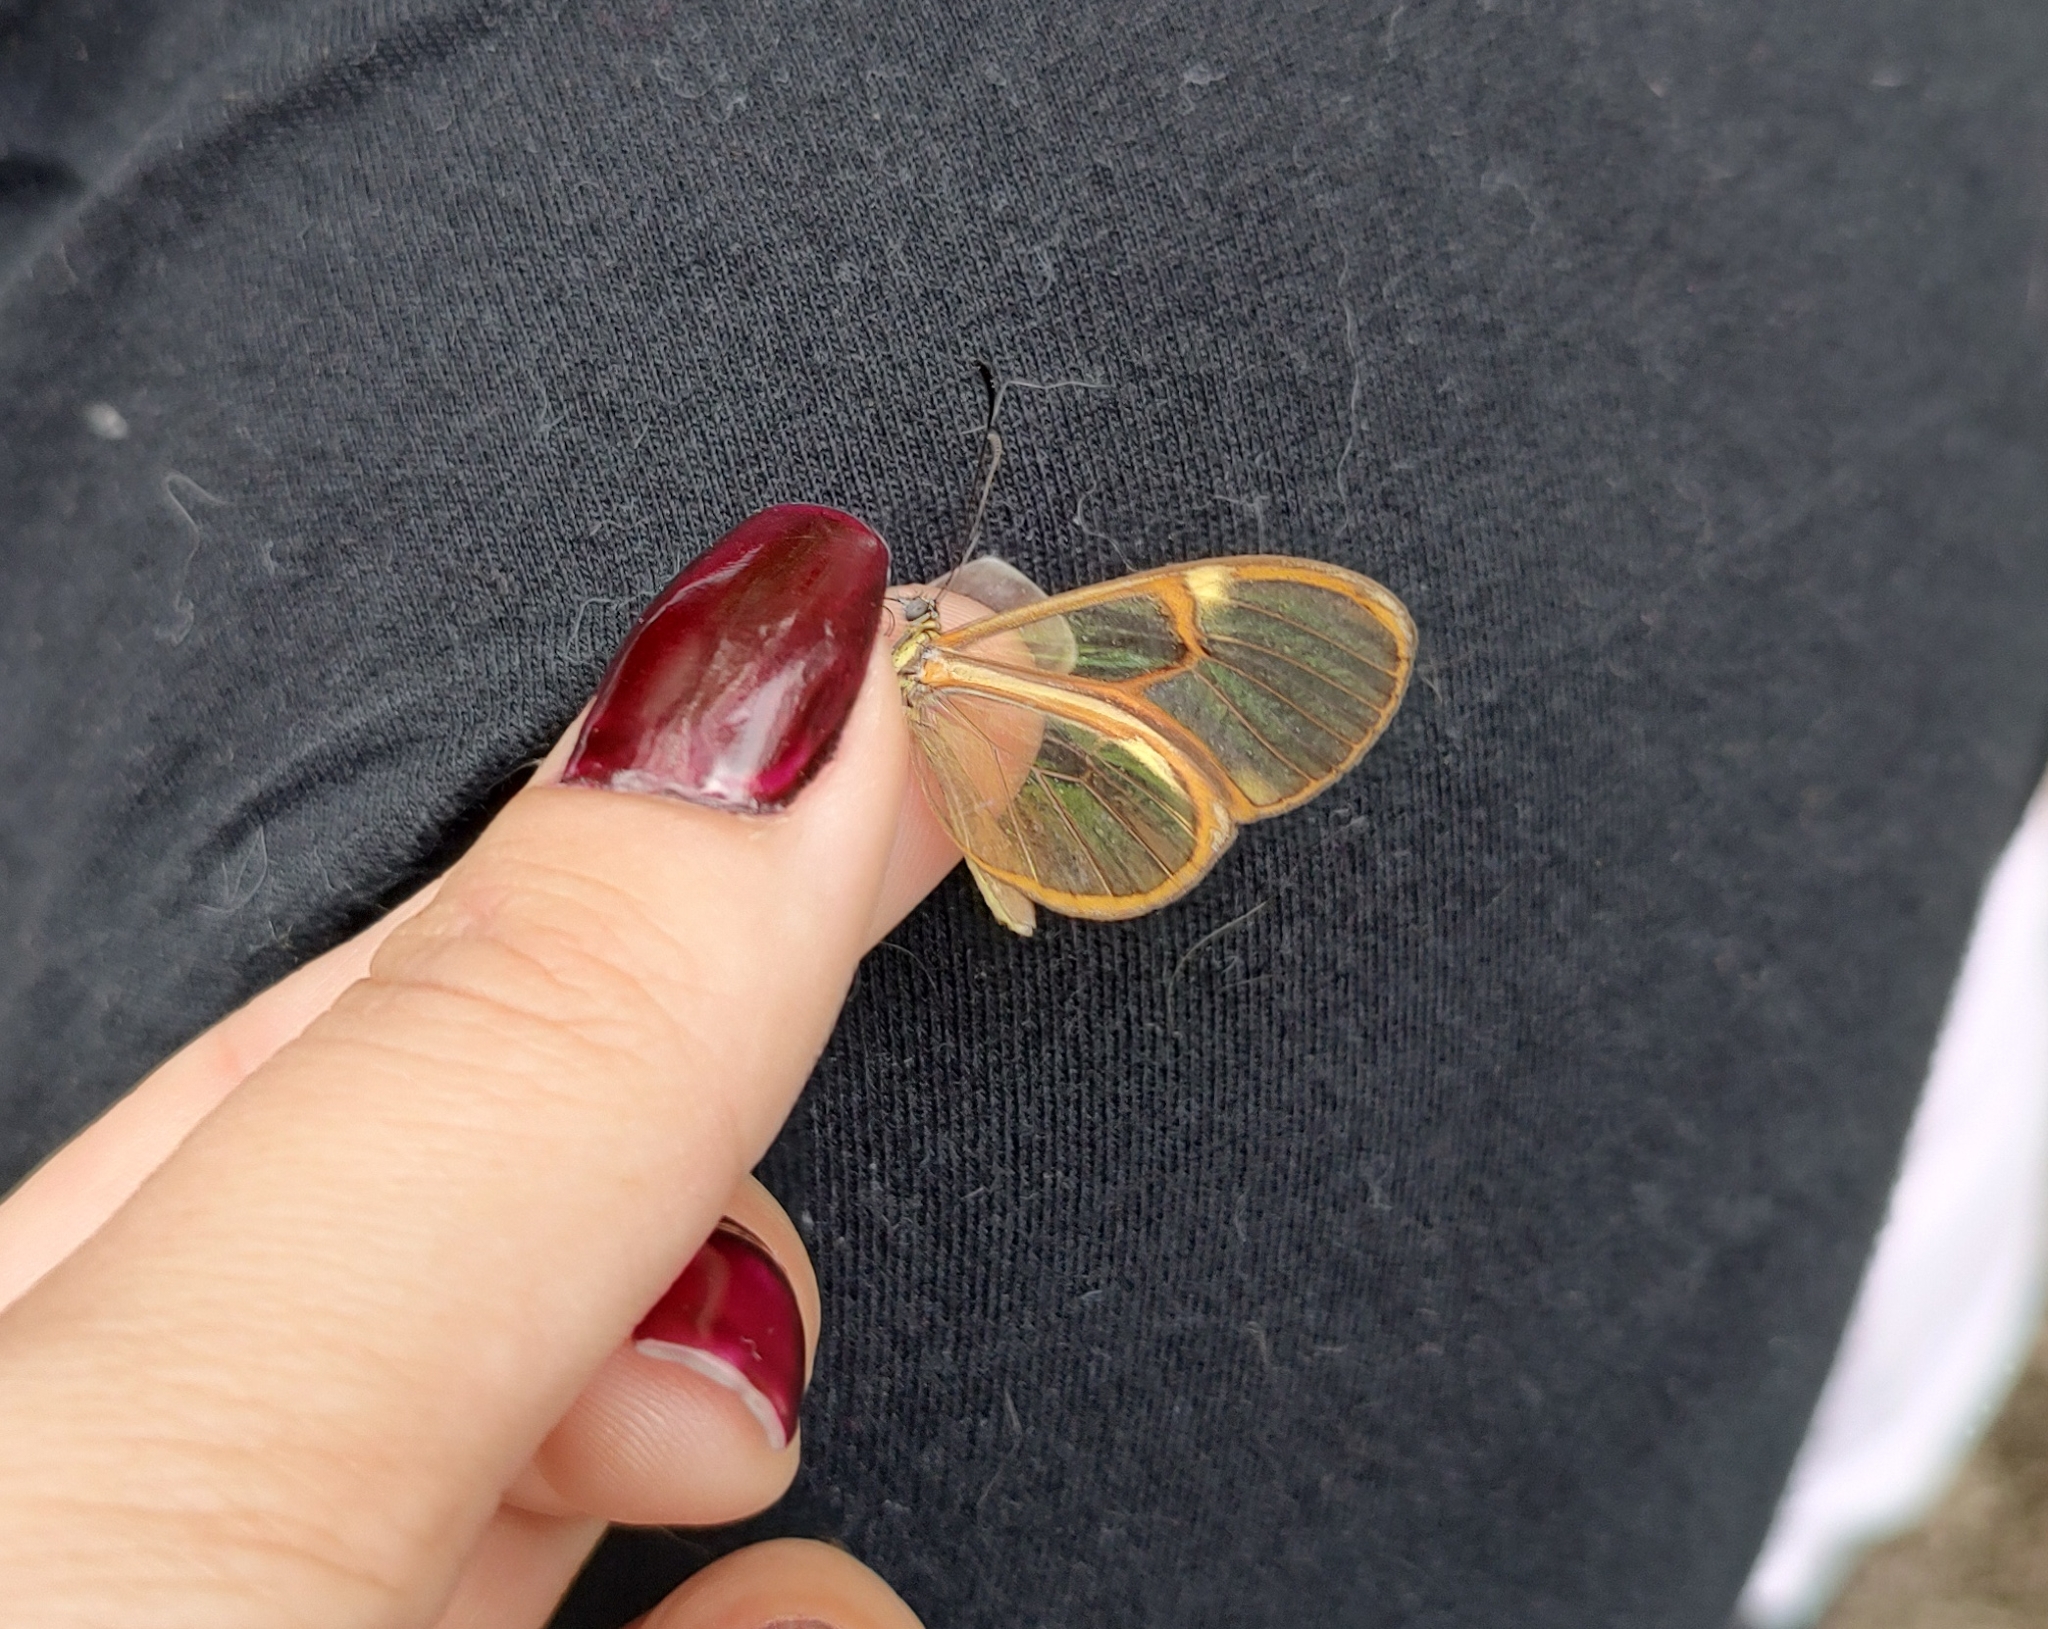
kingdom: Animalia
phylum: Arthropoda
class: Insecta
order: Lepidoptera
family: Nymphalidae
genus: Episcada
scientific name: Episcada hymenaea
